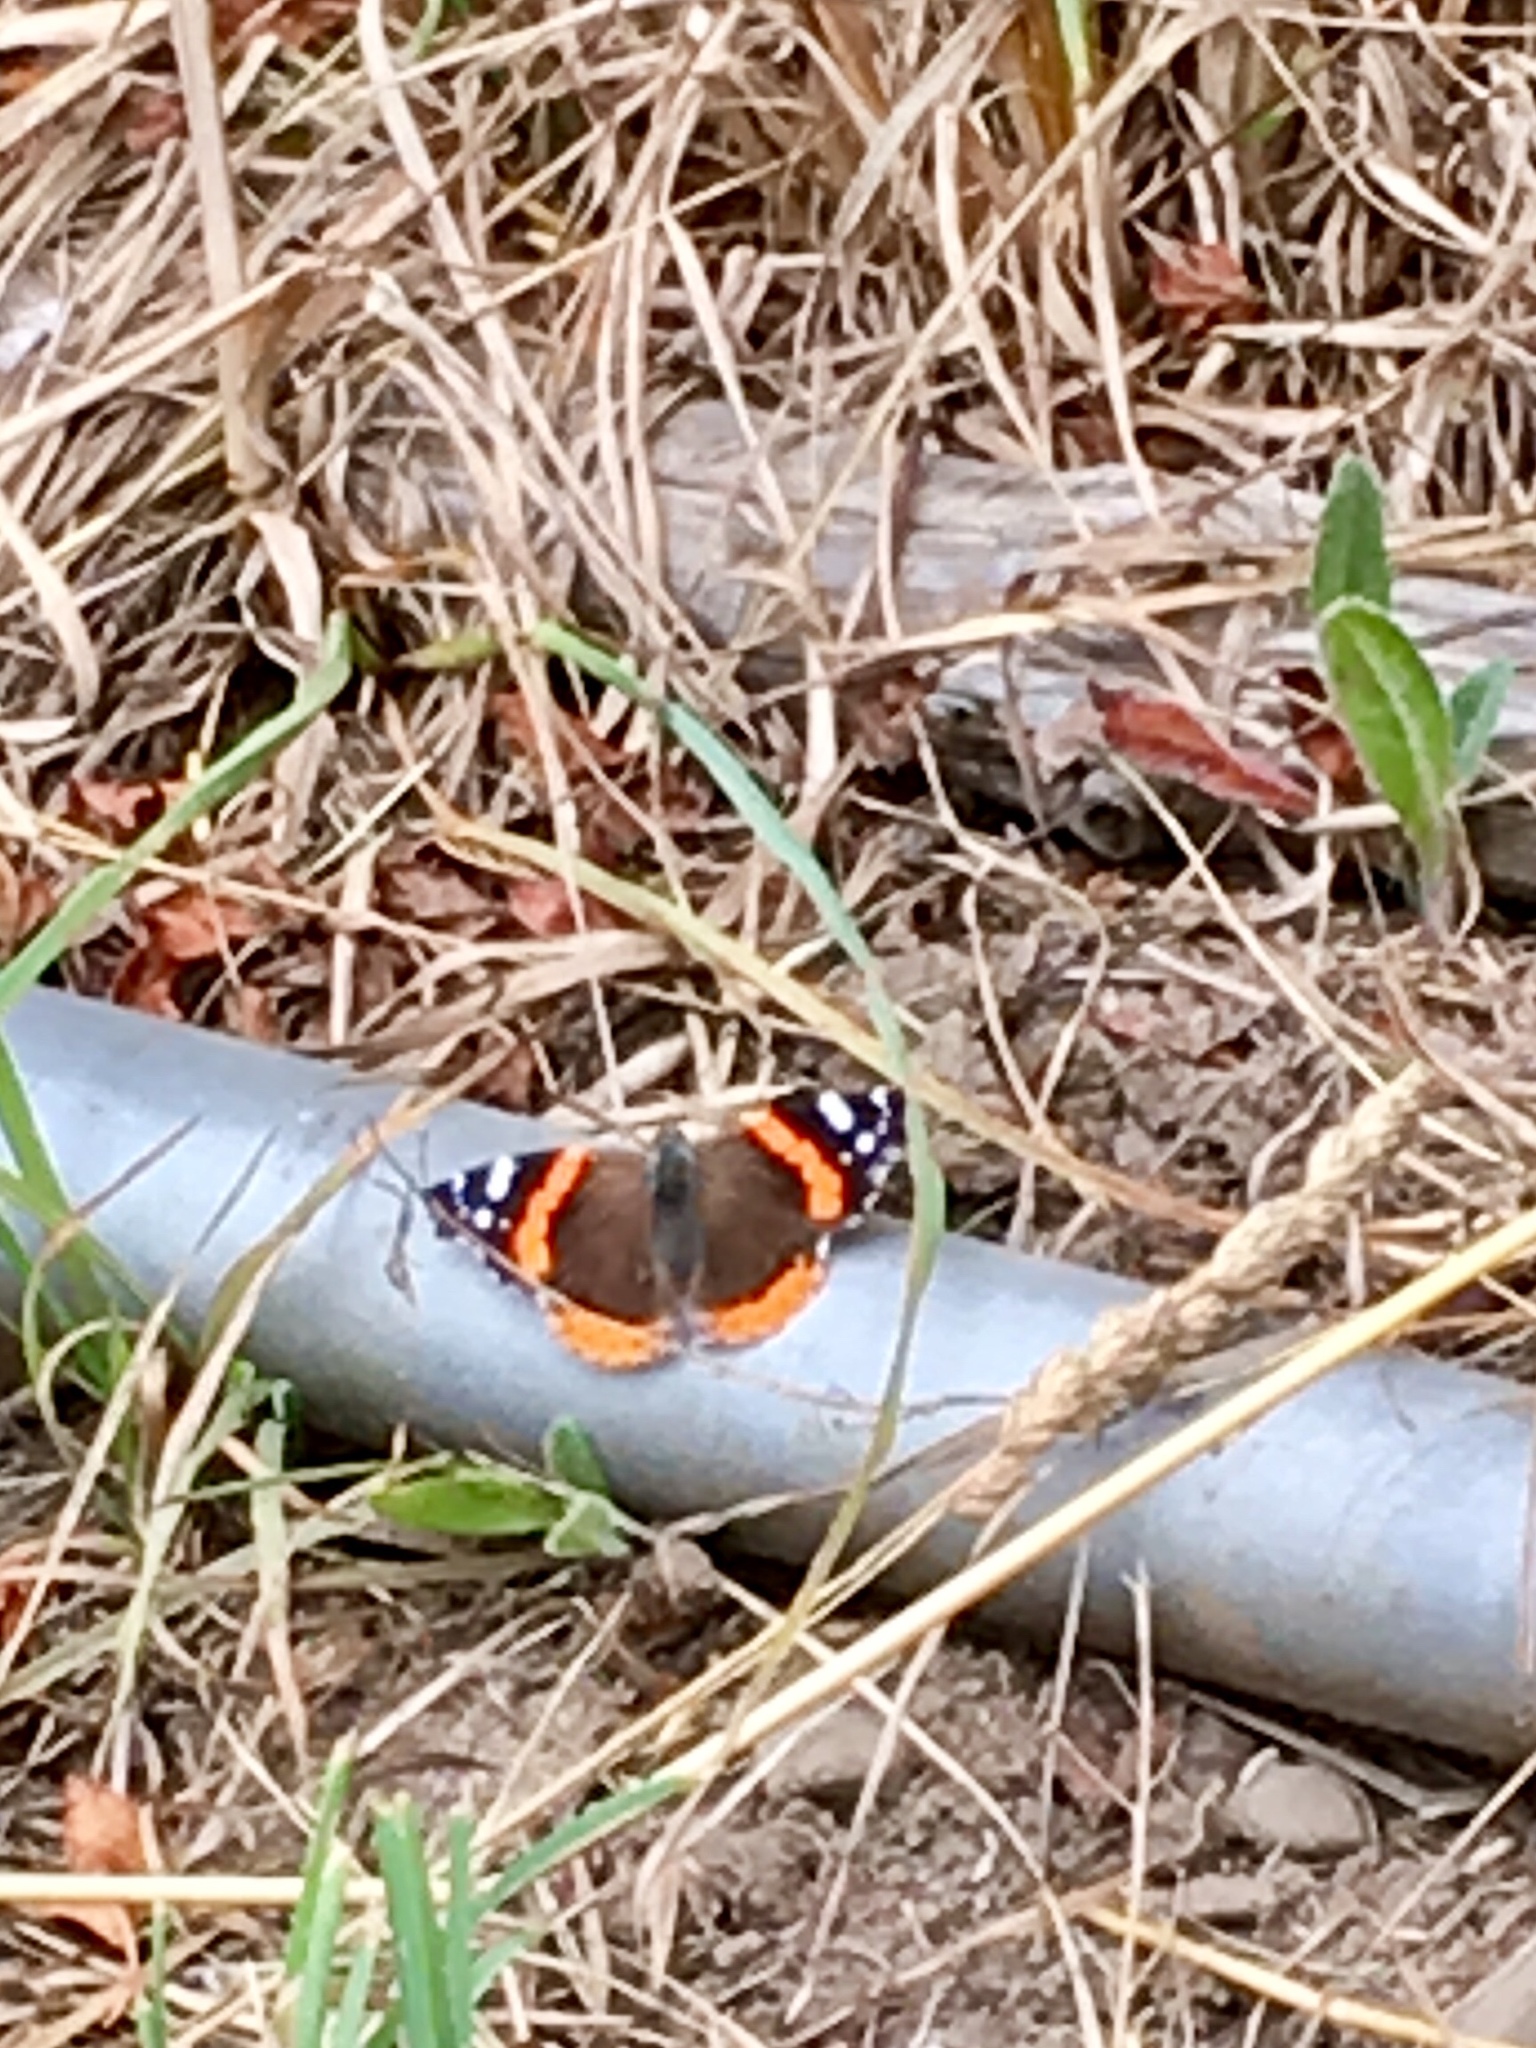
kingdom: Animalia
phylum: Arthropoda
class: Insecta
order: Lepidoptera
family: Nymphalidae
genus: Vanessa
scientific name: Vanessa atalanta
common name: Red admiral
